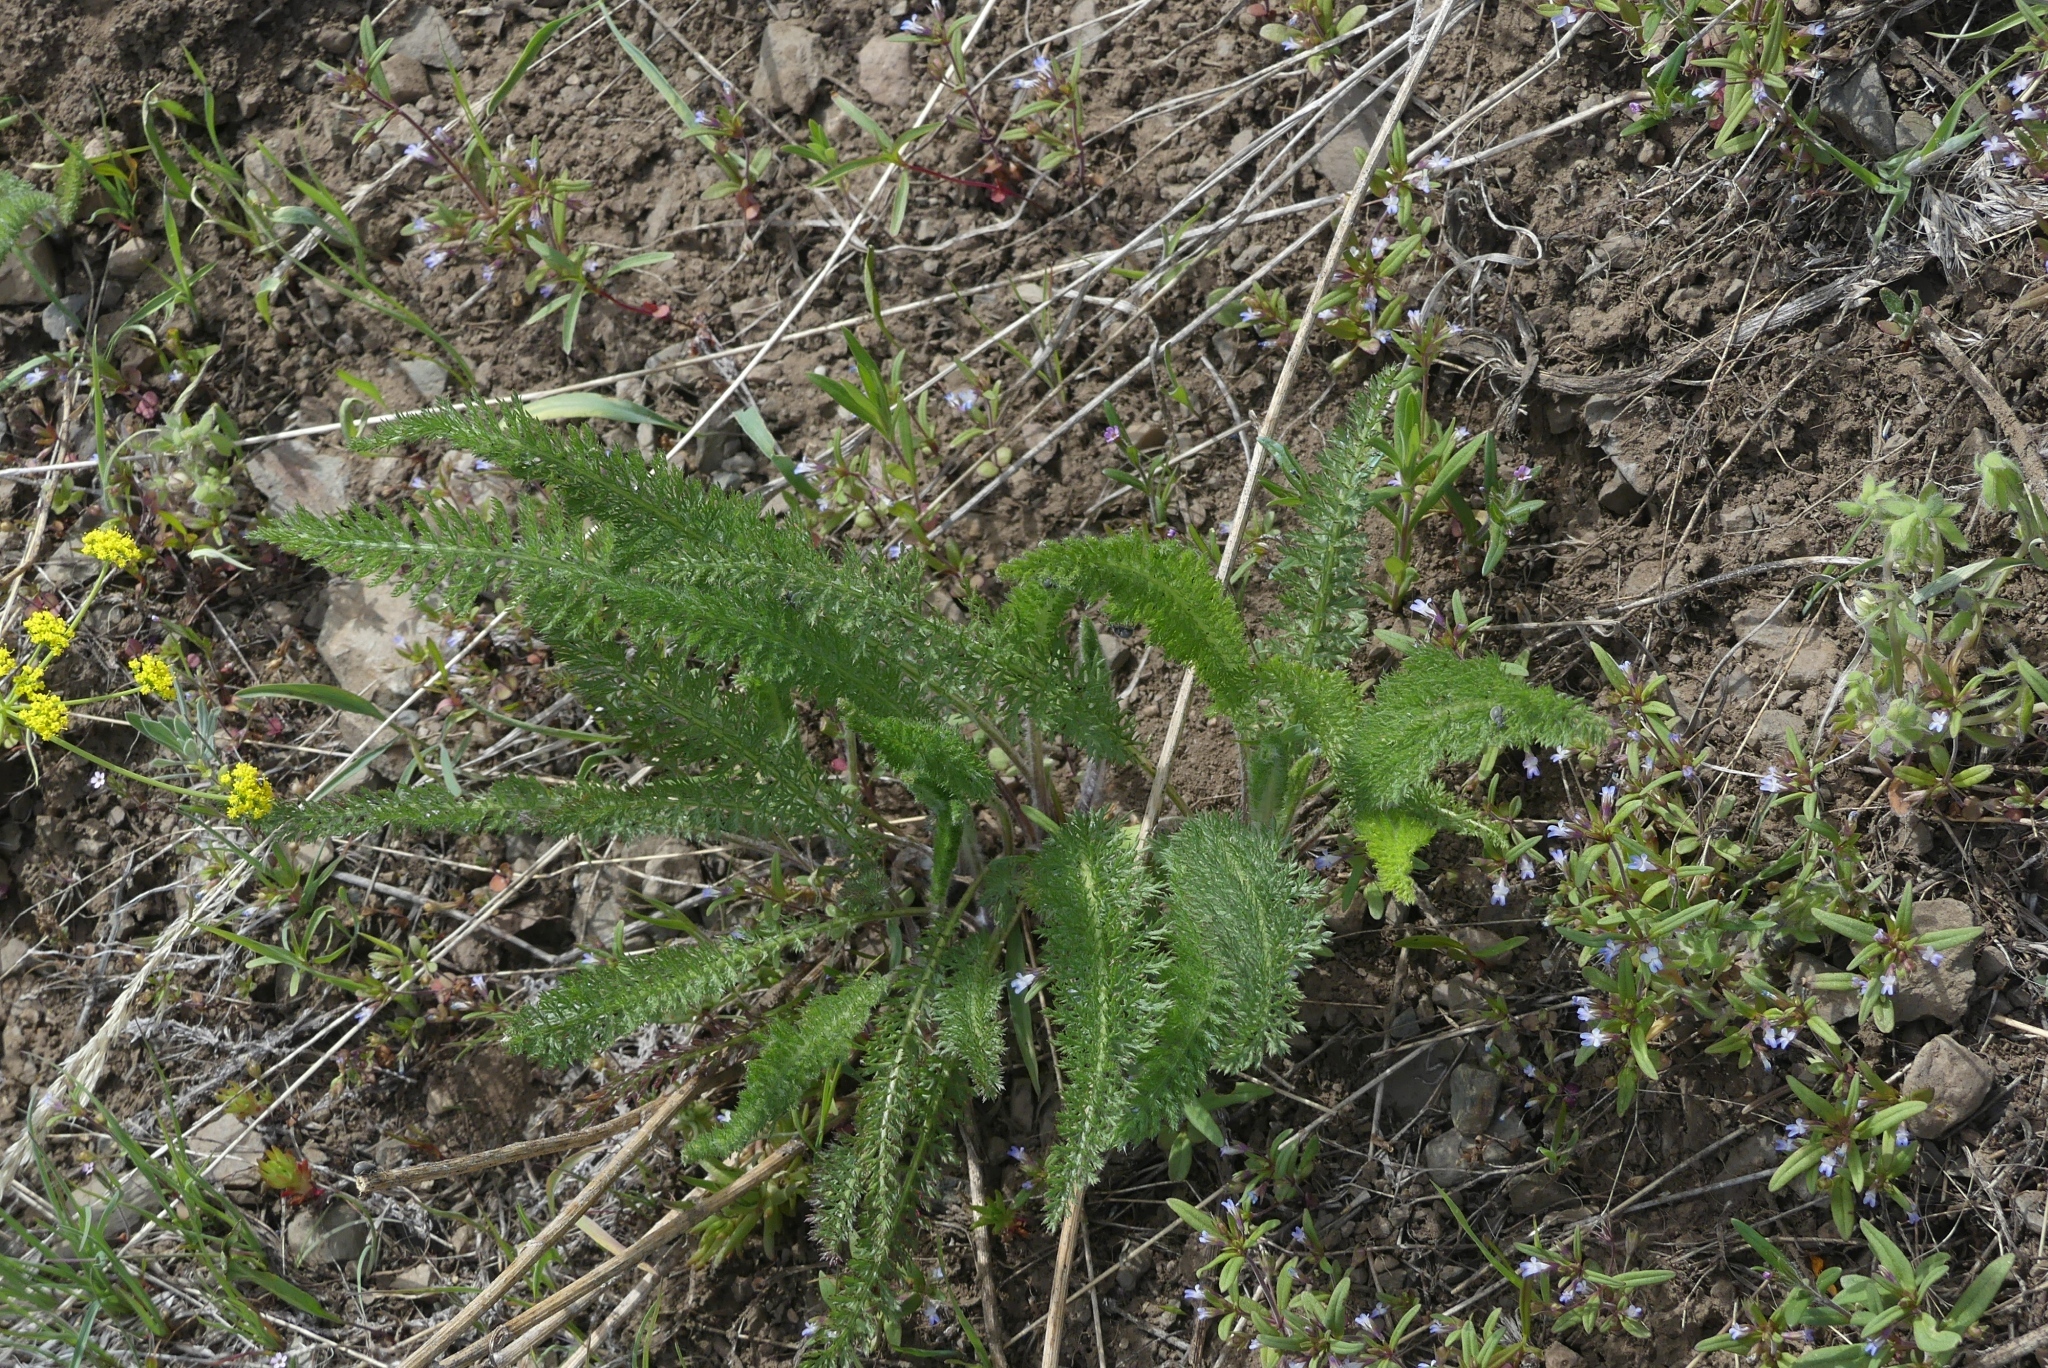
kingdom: Plantae
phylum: Tracheophyta
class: Magnoliopsida
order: Asterales
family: Asteraceae
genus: Achillea
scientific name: Achillea millefolium
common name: Yarrow
